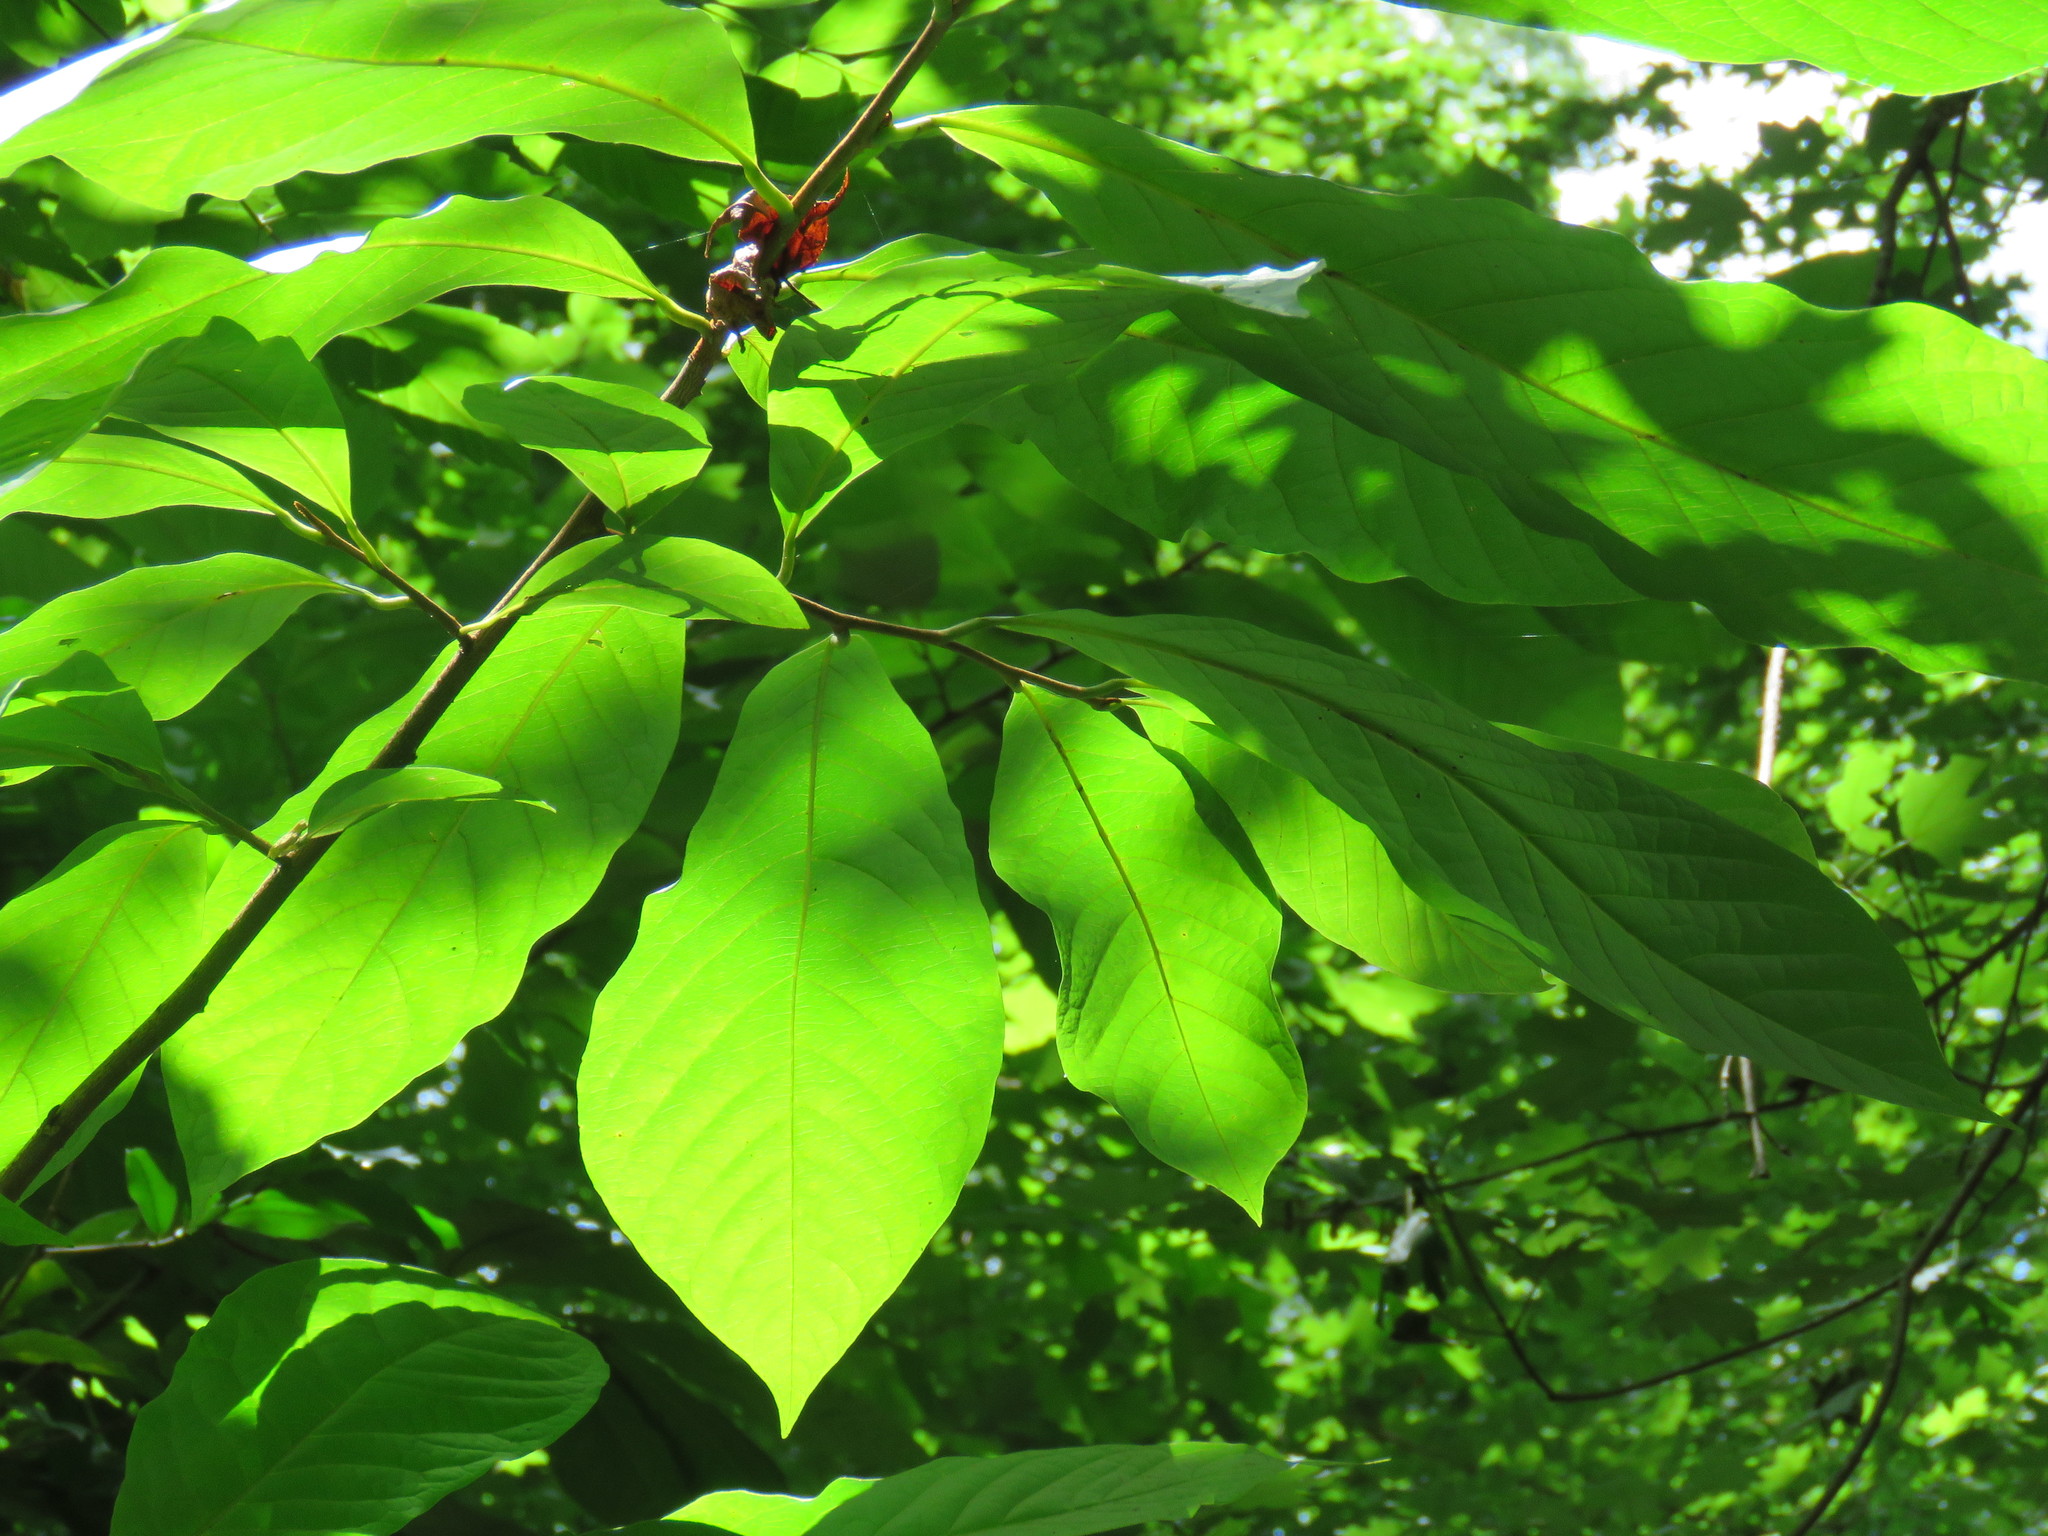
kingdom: Plantae
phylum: Tracheophyta
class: Magnoliopsida
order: Magnoliales
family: Annonaceae
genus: Asimina
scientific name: Asimina triloba
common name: Dog-banana
